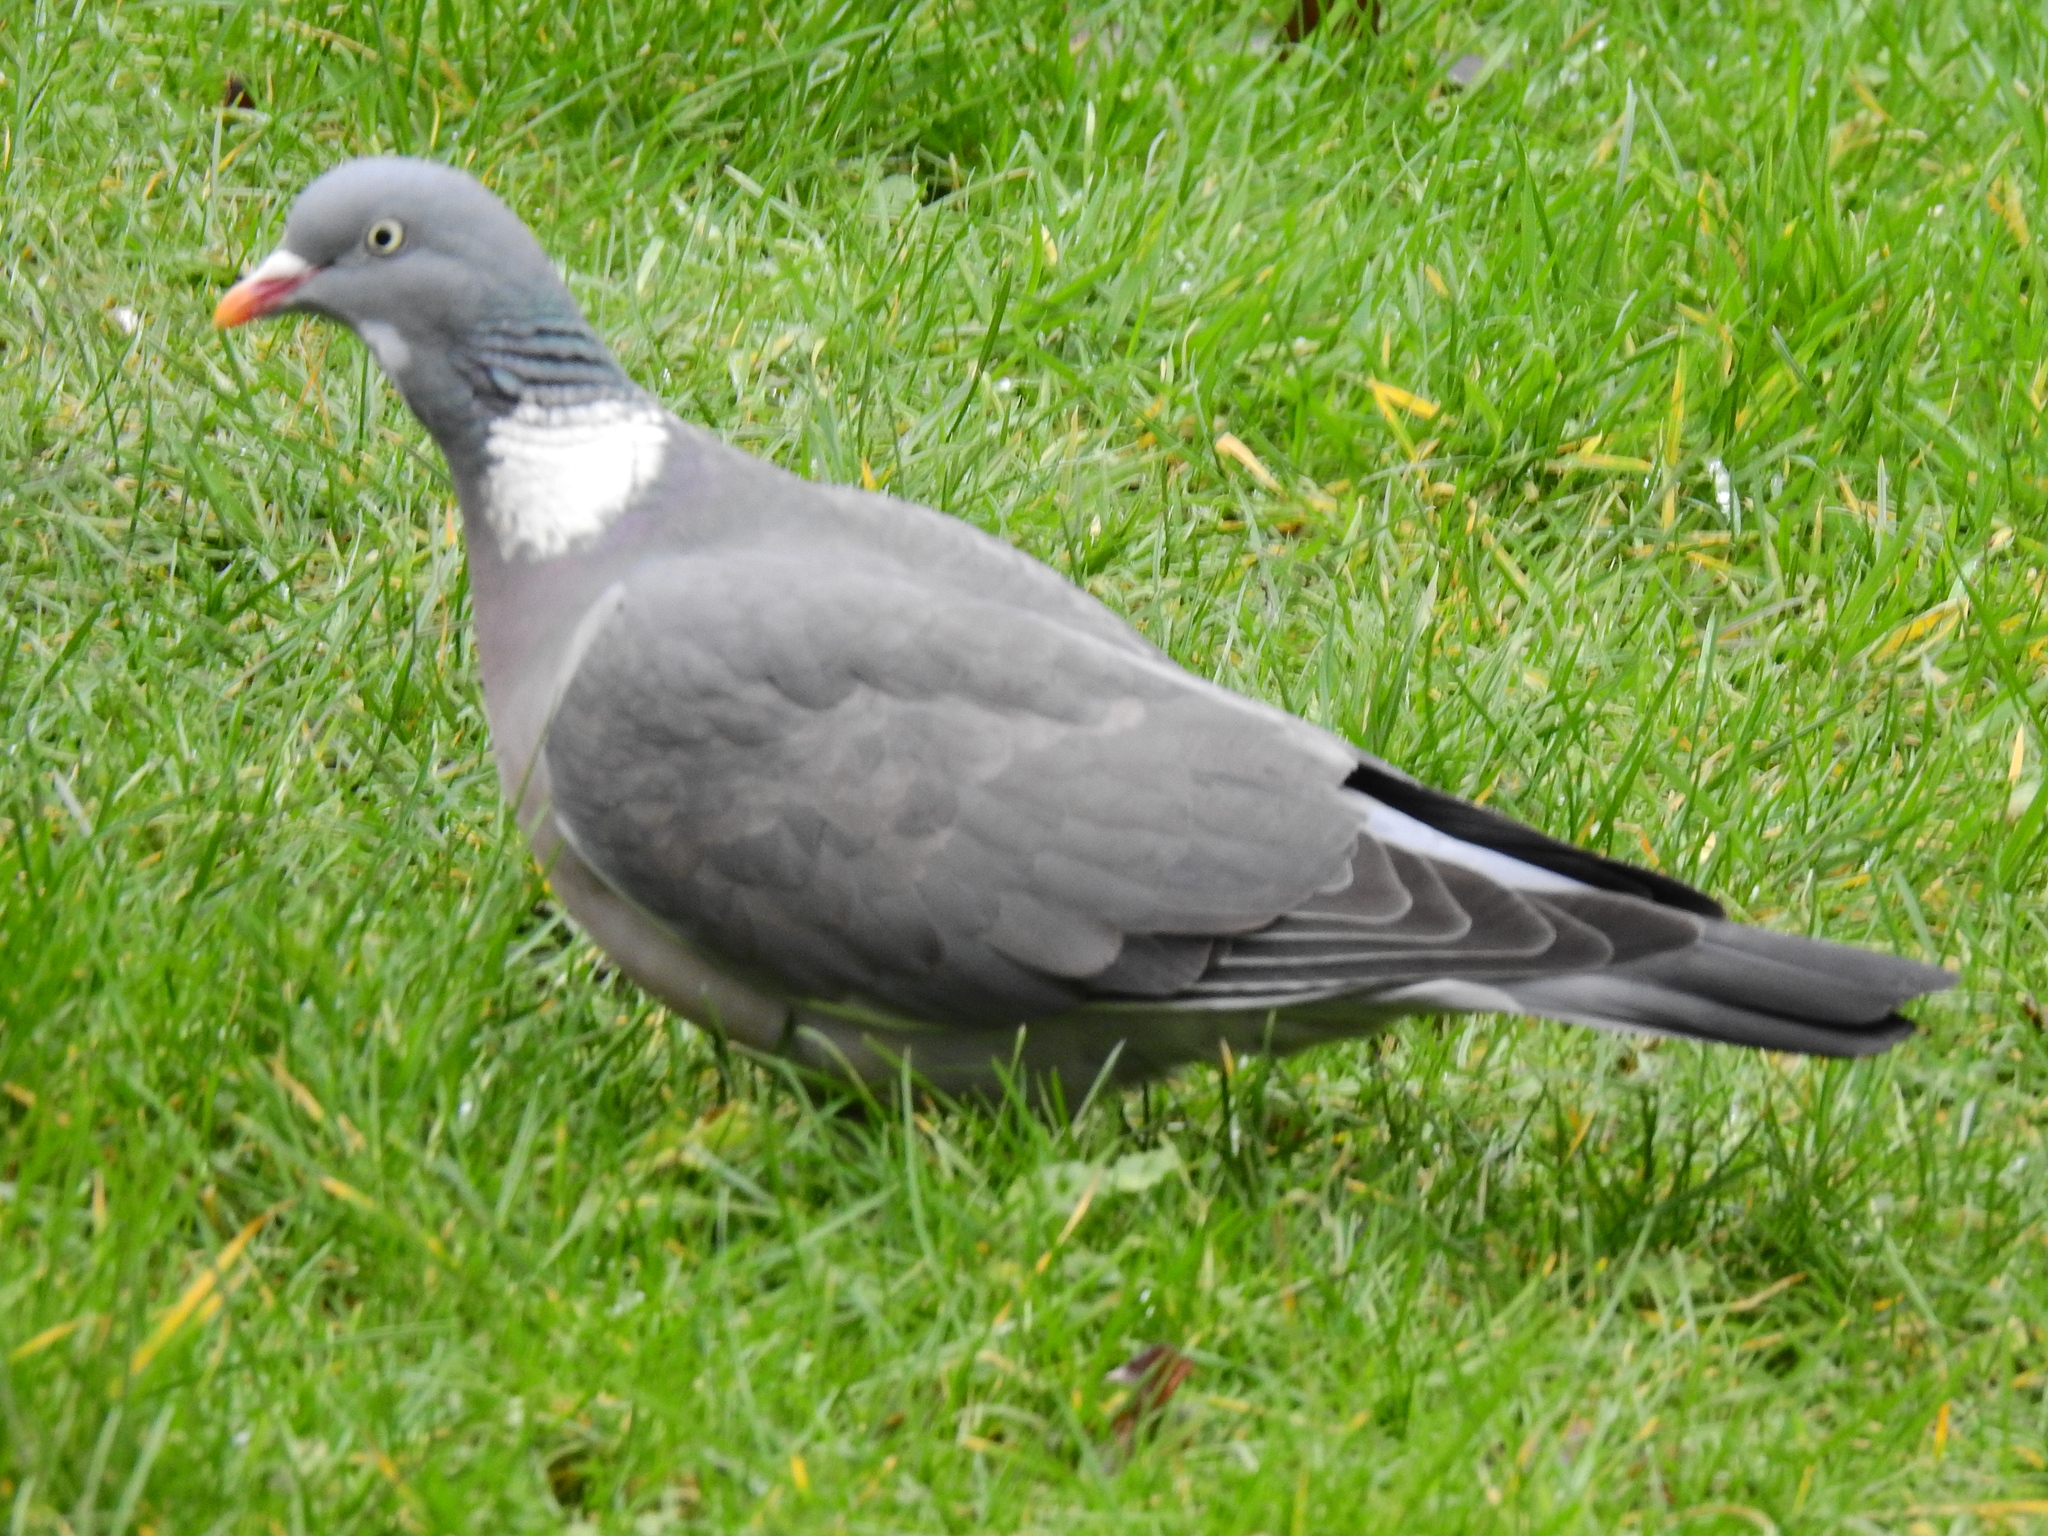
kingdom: Animalia
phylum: Chordata
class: Aves
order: Columbiformes
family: Columbidae
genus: Columba
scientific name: Columba palumbus
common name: Common wood pigeon
